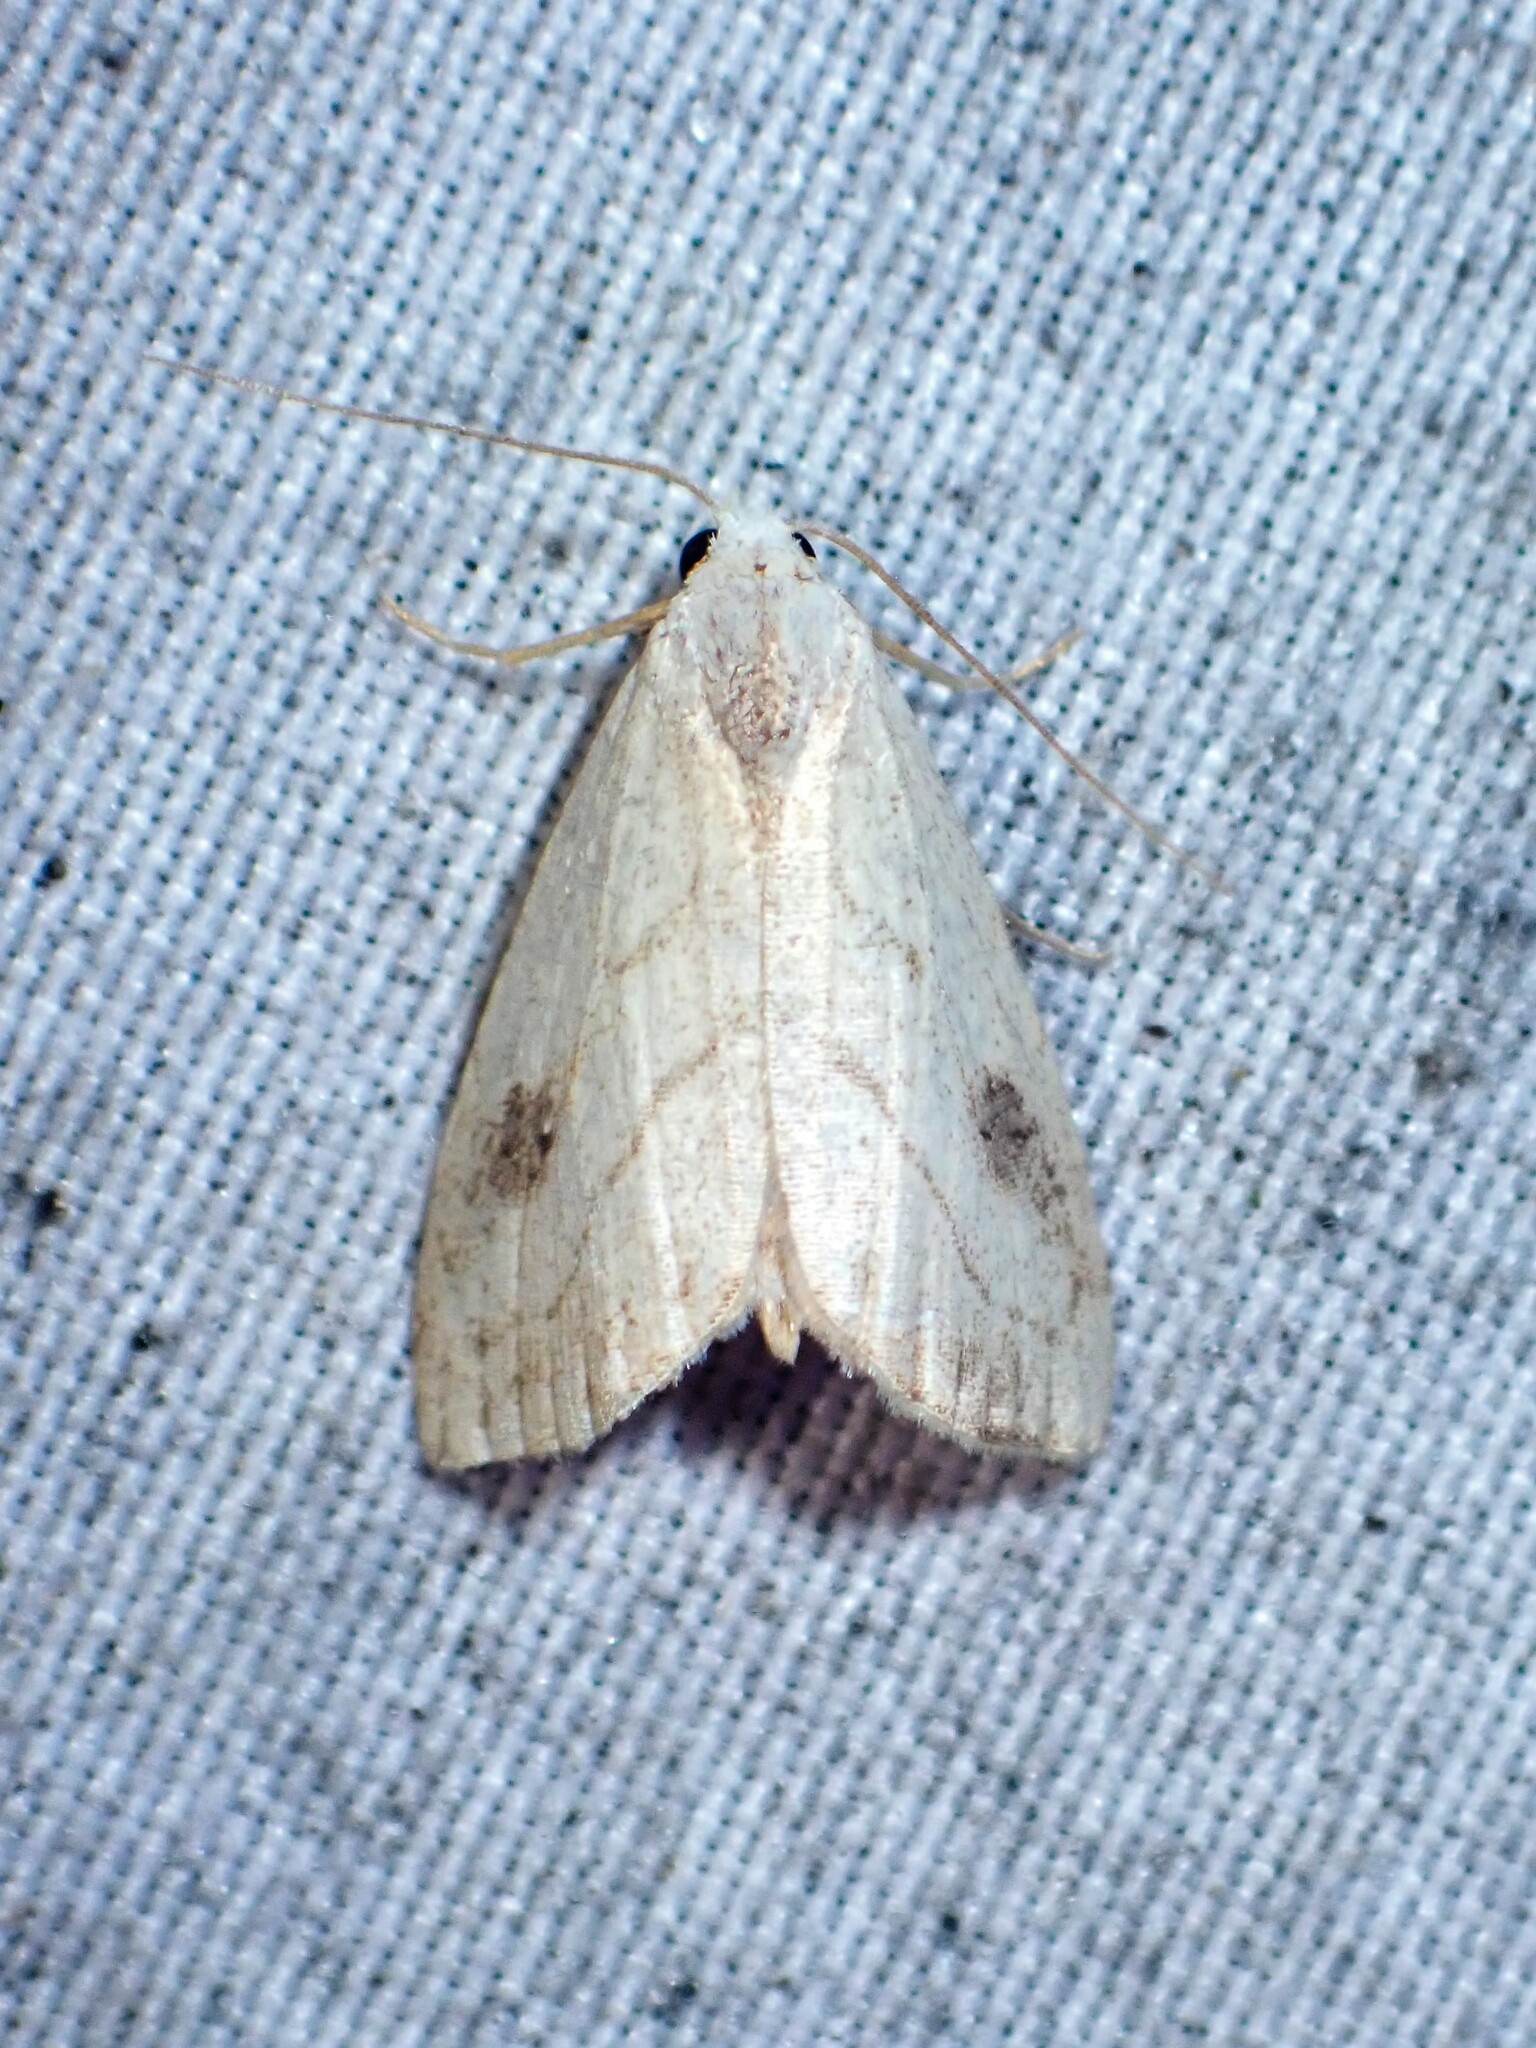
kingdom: Animalia
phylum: Arthropoda
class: Insecta
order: Lepidoptera
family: Erebidae
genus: Rivula
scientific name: Rivula propinqualis
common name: Spotted grass moth
